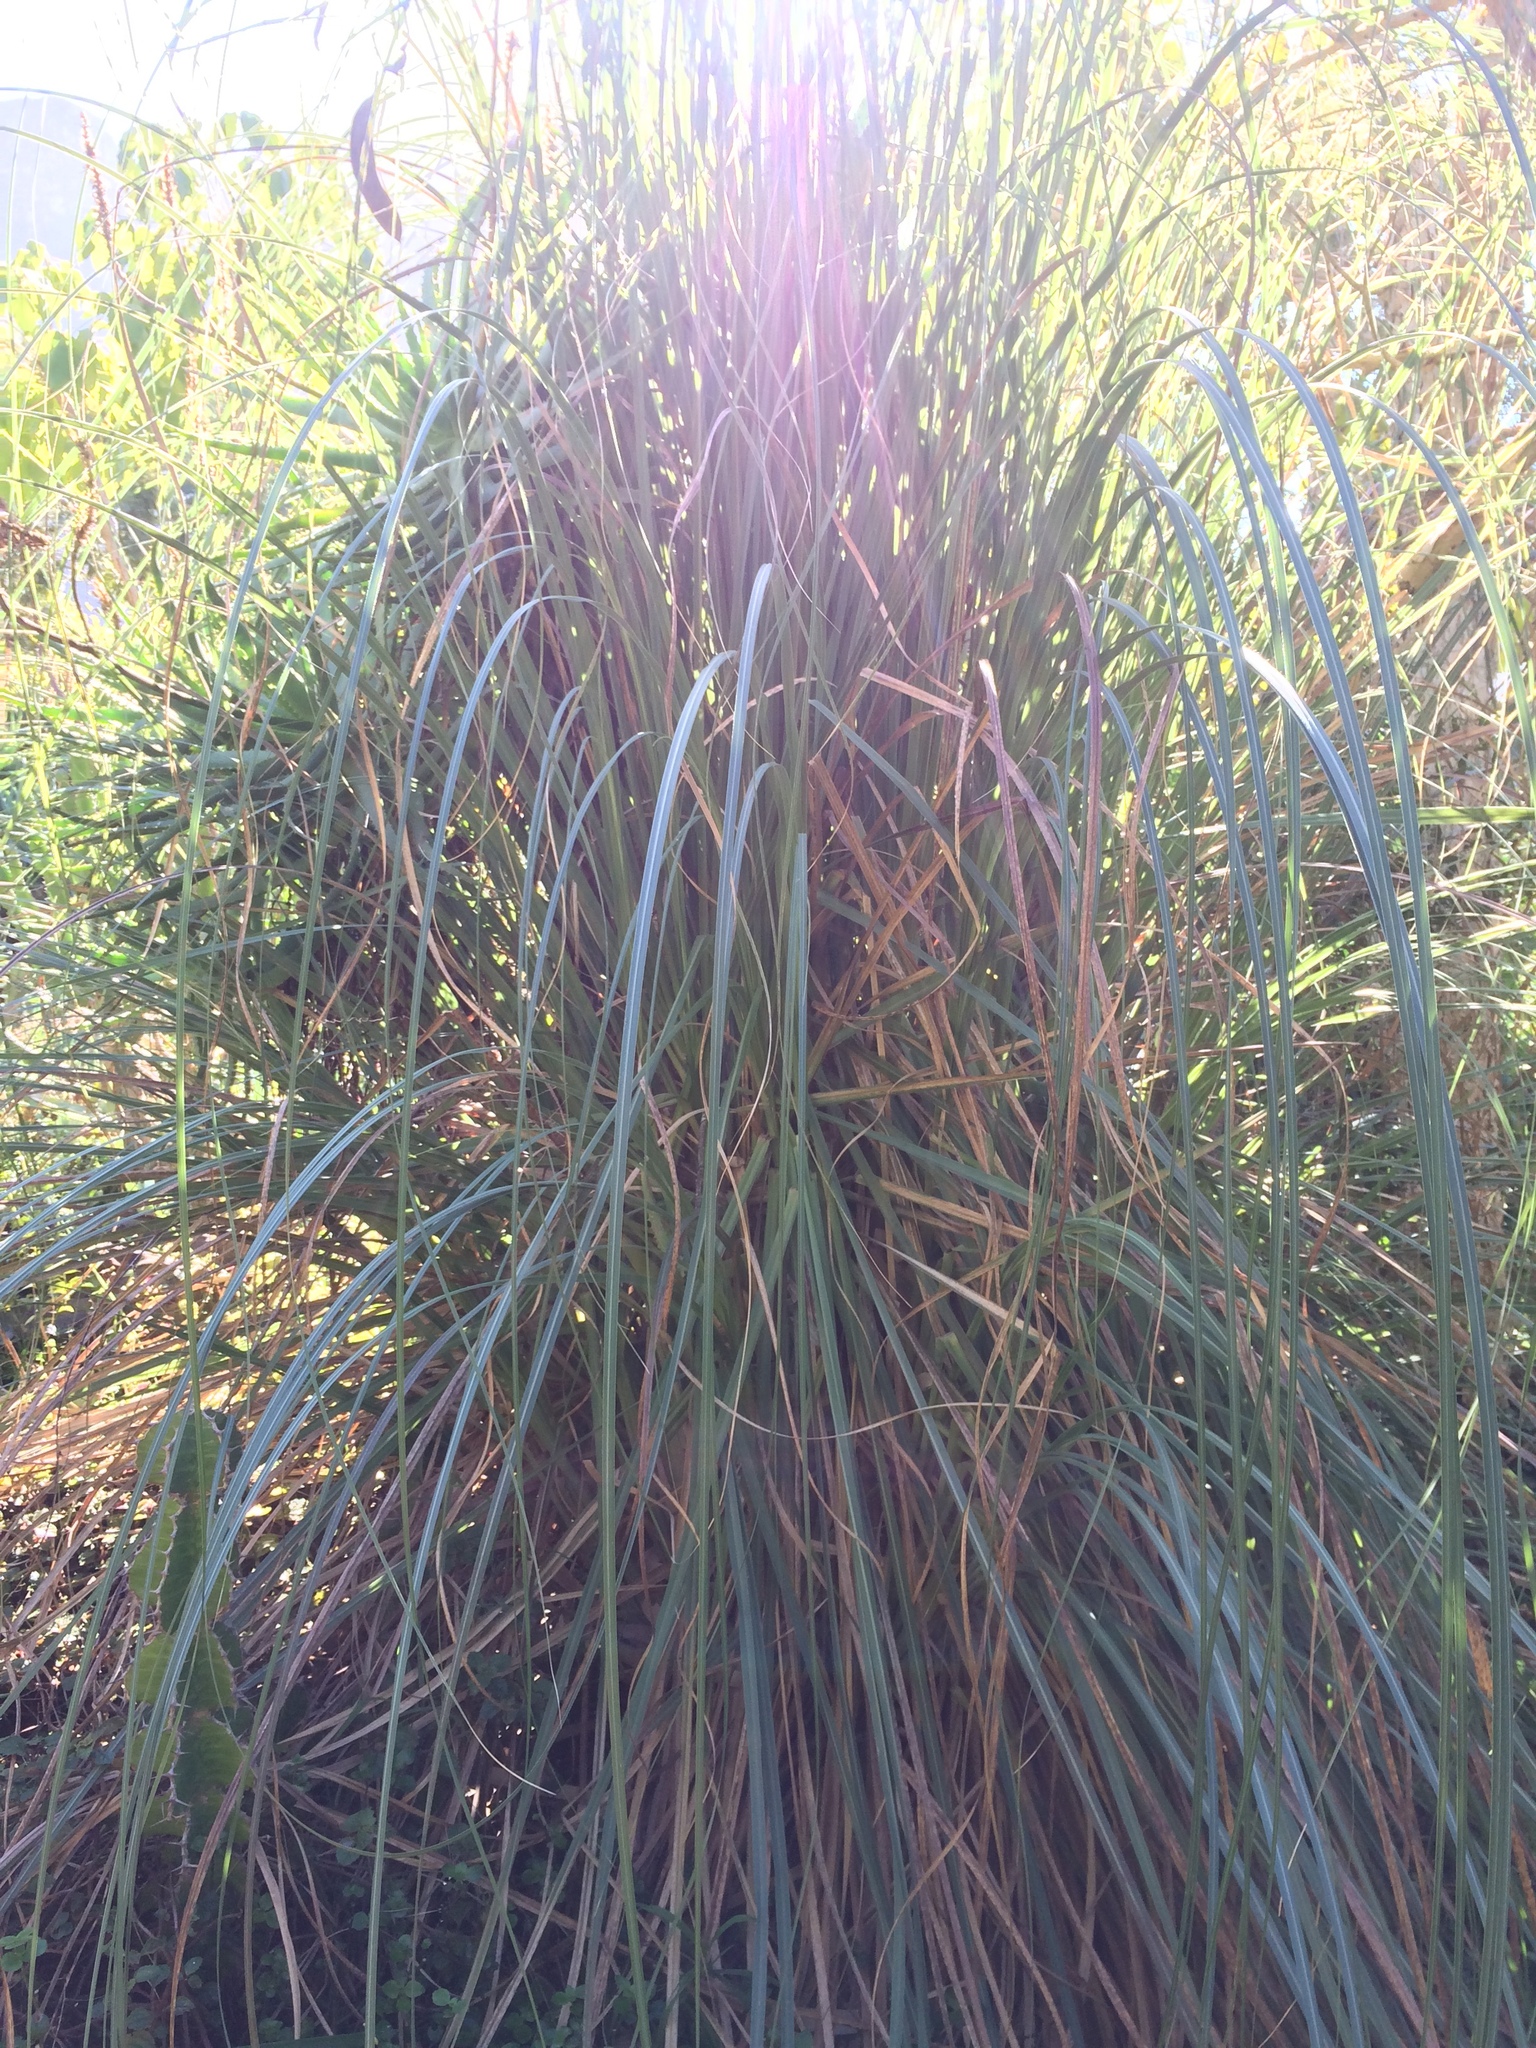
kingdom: Plantae
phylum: Tracheophyta
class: Liliopsida
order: Poales
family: Poaceae
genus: Cortaderia
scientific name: Cortaderia selloana
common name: Uruguayan pampas grass
